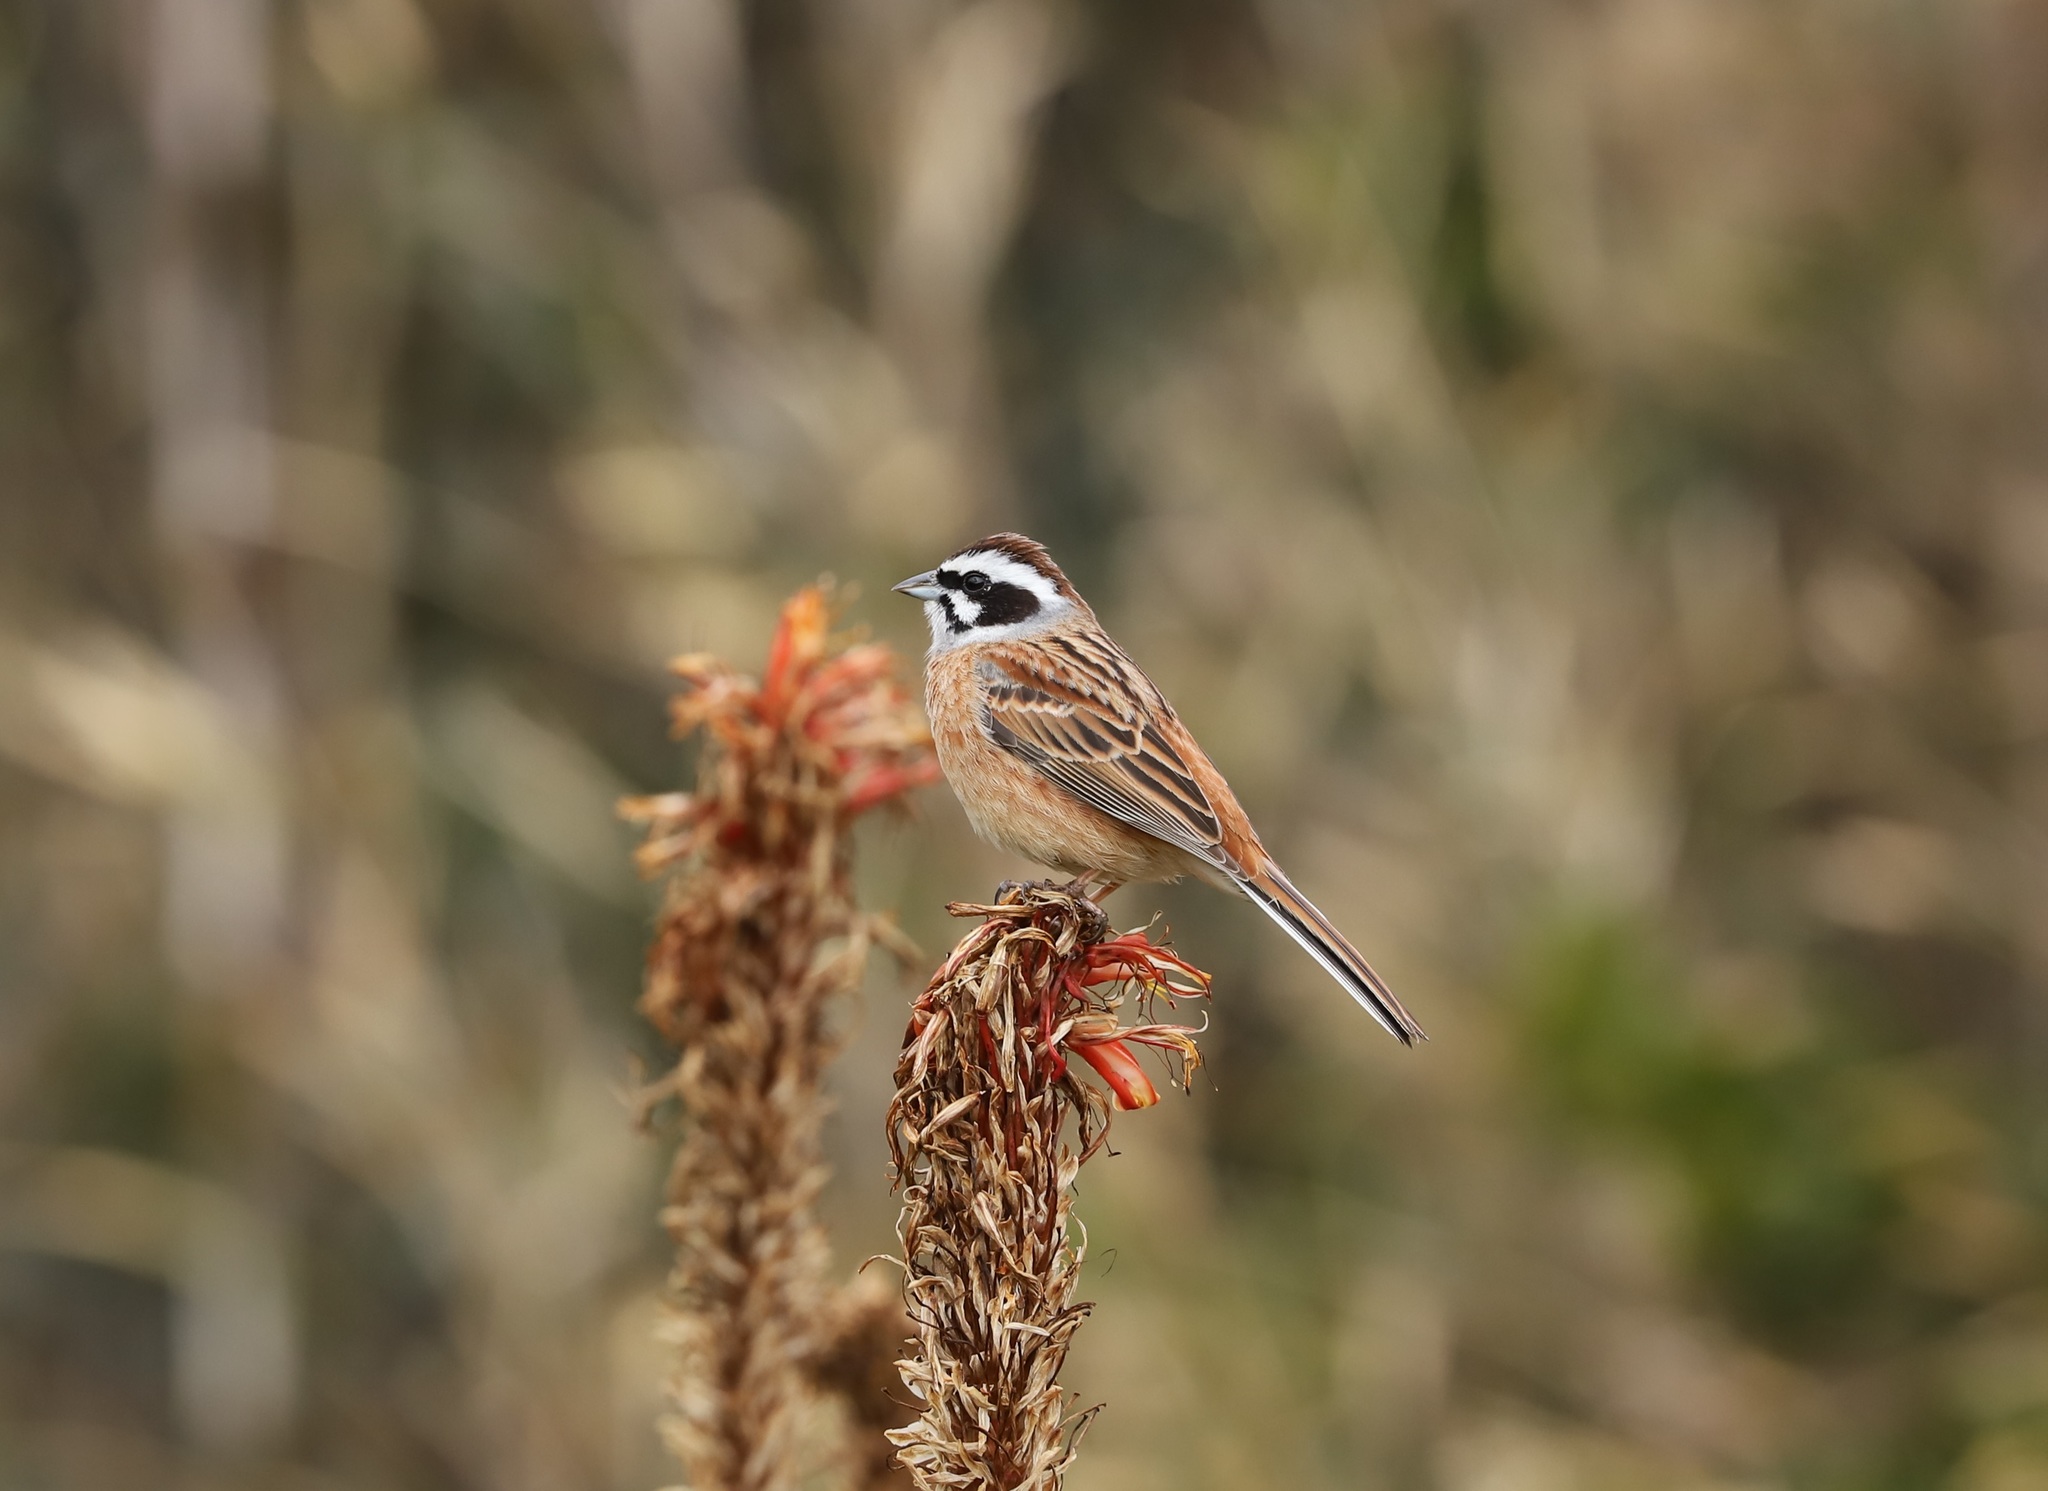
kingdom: Animalia
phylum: Chordata
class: Aves
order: Passeriformes
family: Emberizidae
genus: Emberiza
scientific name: Emberiza cioides
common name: Meadow bunting
